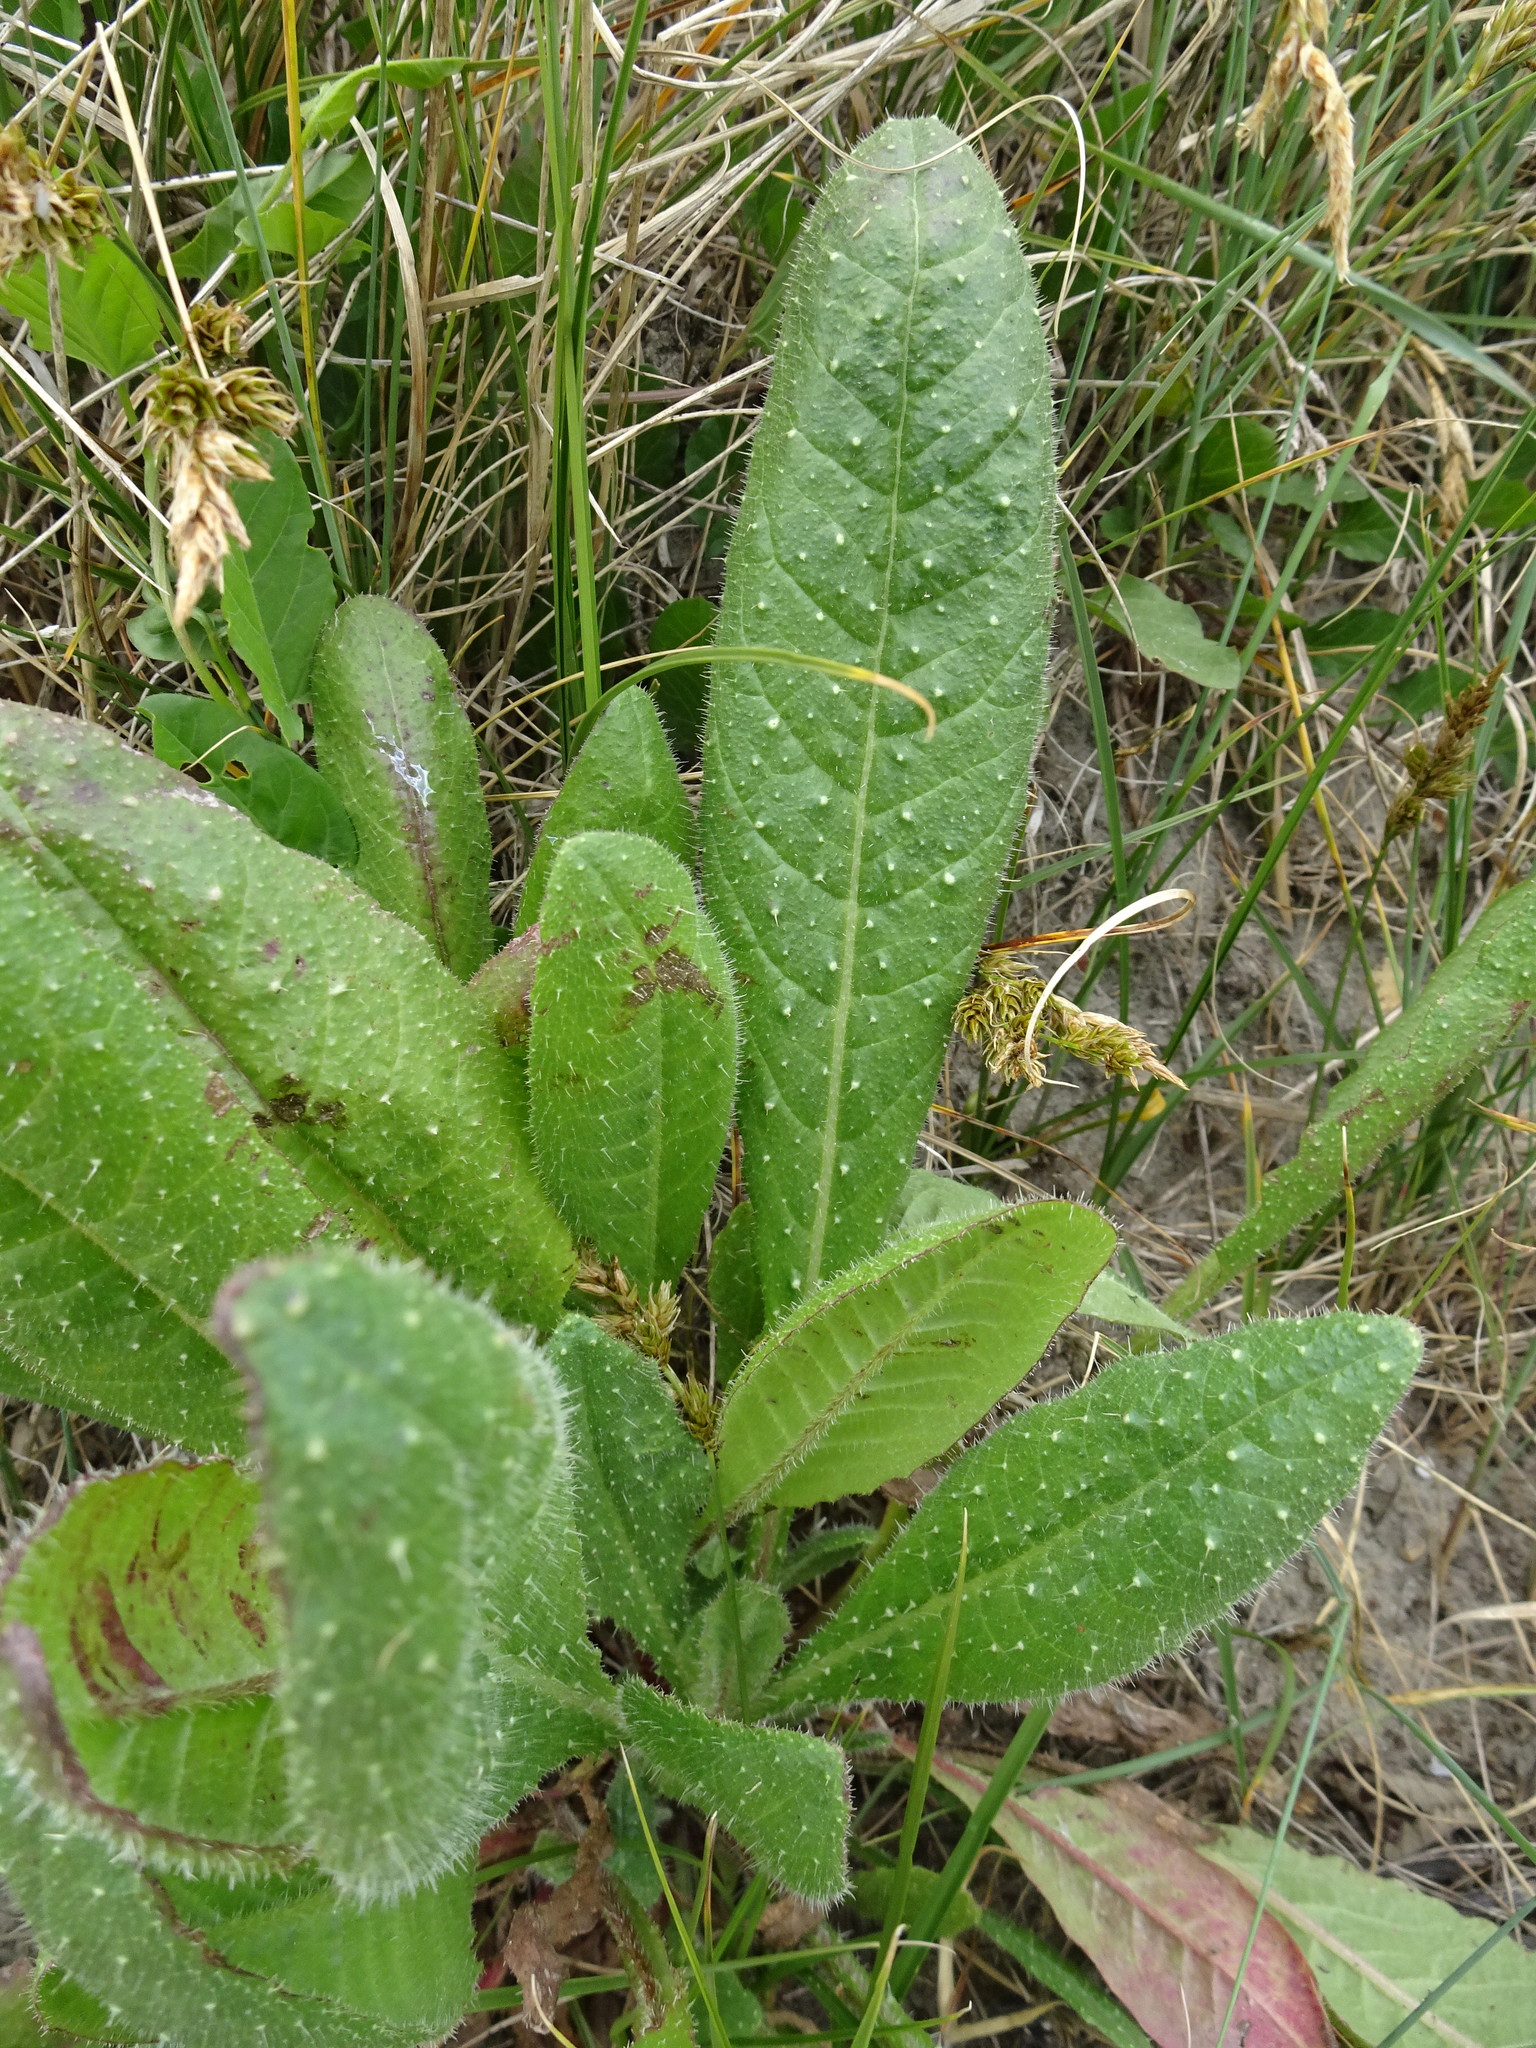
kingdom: Plantae
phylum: Tracheophyta
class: Magnoliopsida
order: Asterales
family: Asteraceae
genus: Helminthotheca
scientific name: Helminthotheca echioides
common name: Ox-tongue
